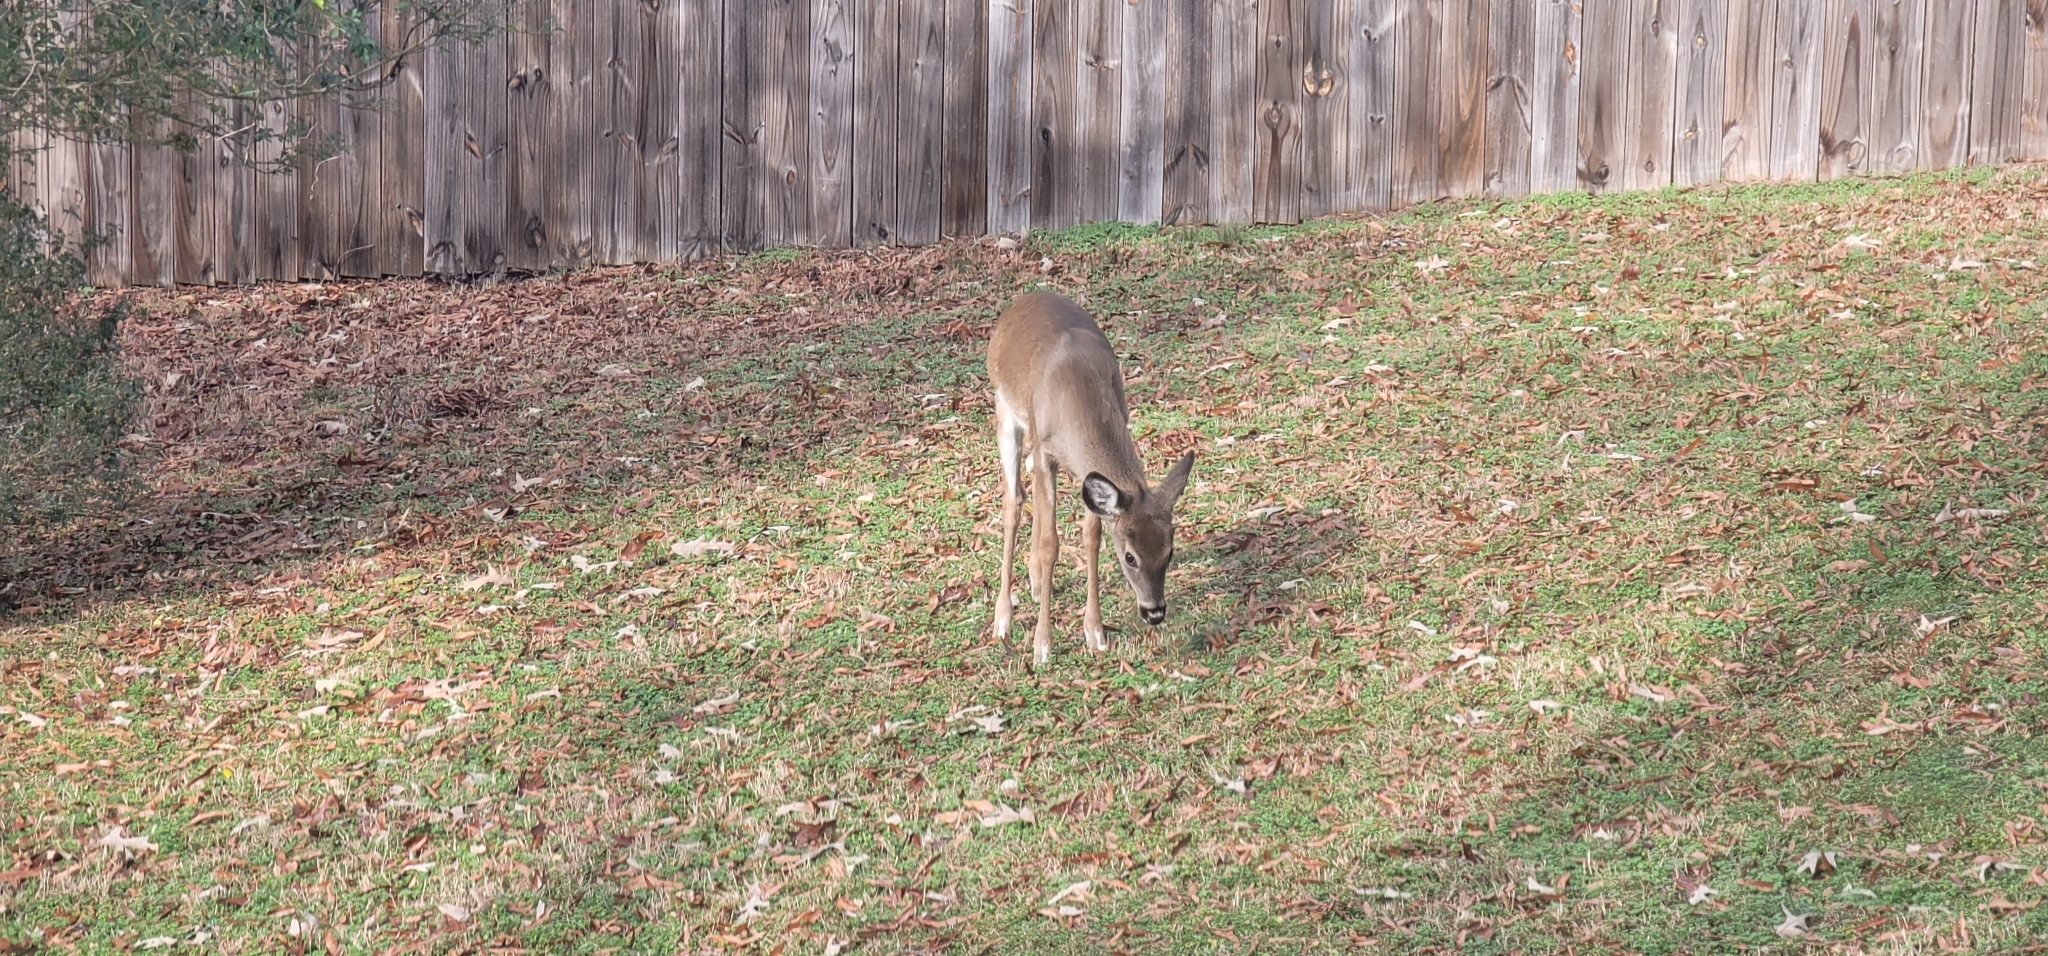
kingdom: Animalia
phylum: Chordata
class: Mammalia
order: Artiodactyla
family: Cervidae
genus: Odocoileus
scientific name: Odocoileus virginianus
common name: White-tailed deer
